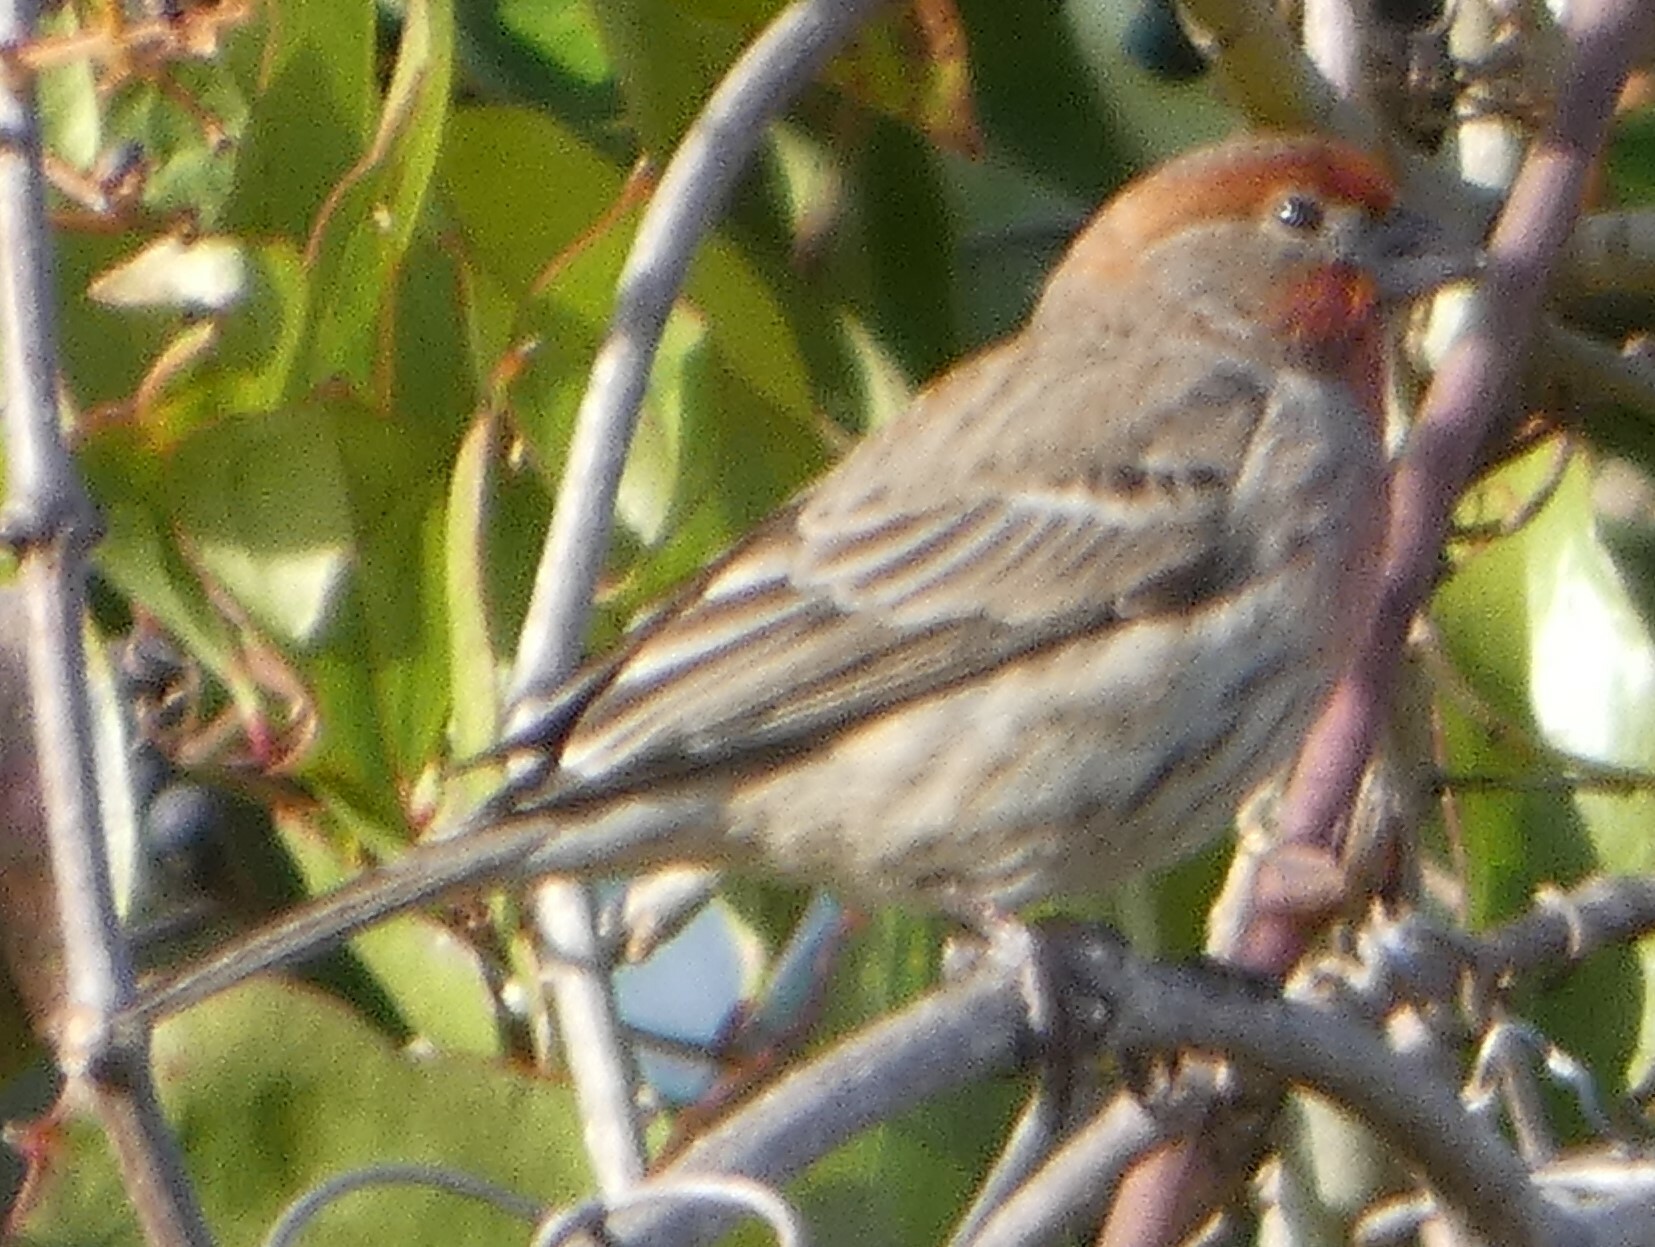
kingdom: Animalia
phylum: Chordata
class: Aves
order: Passeriformes
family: Fringillidae
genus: Haemorhous
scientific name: Haemorhous mexicanus
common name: House finch
